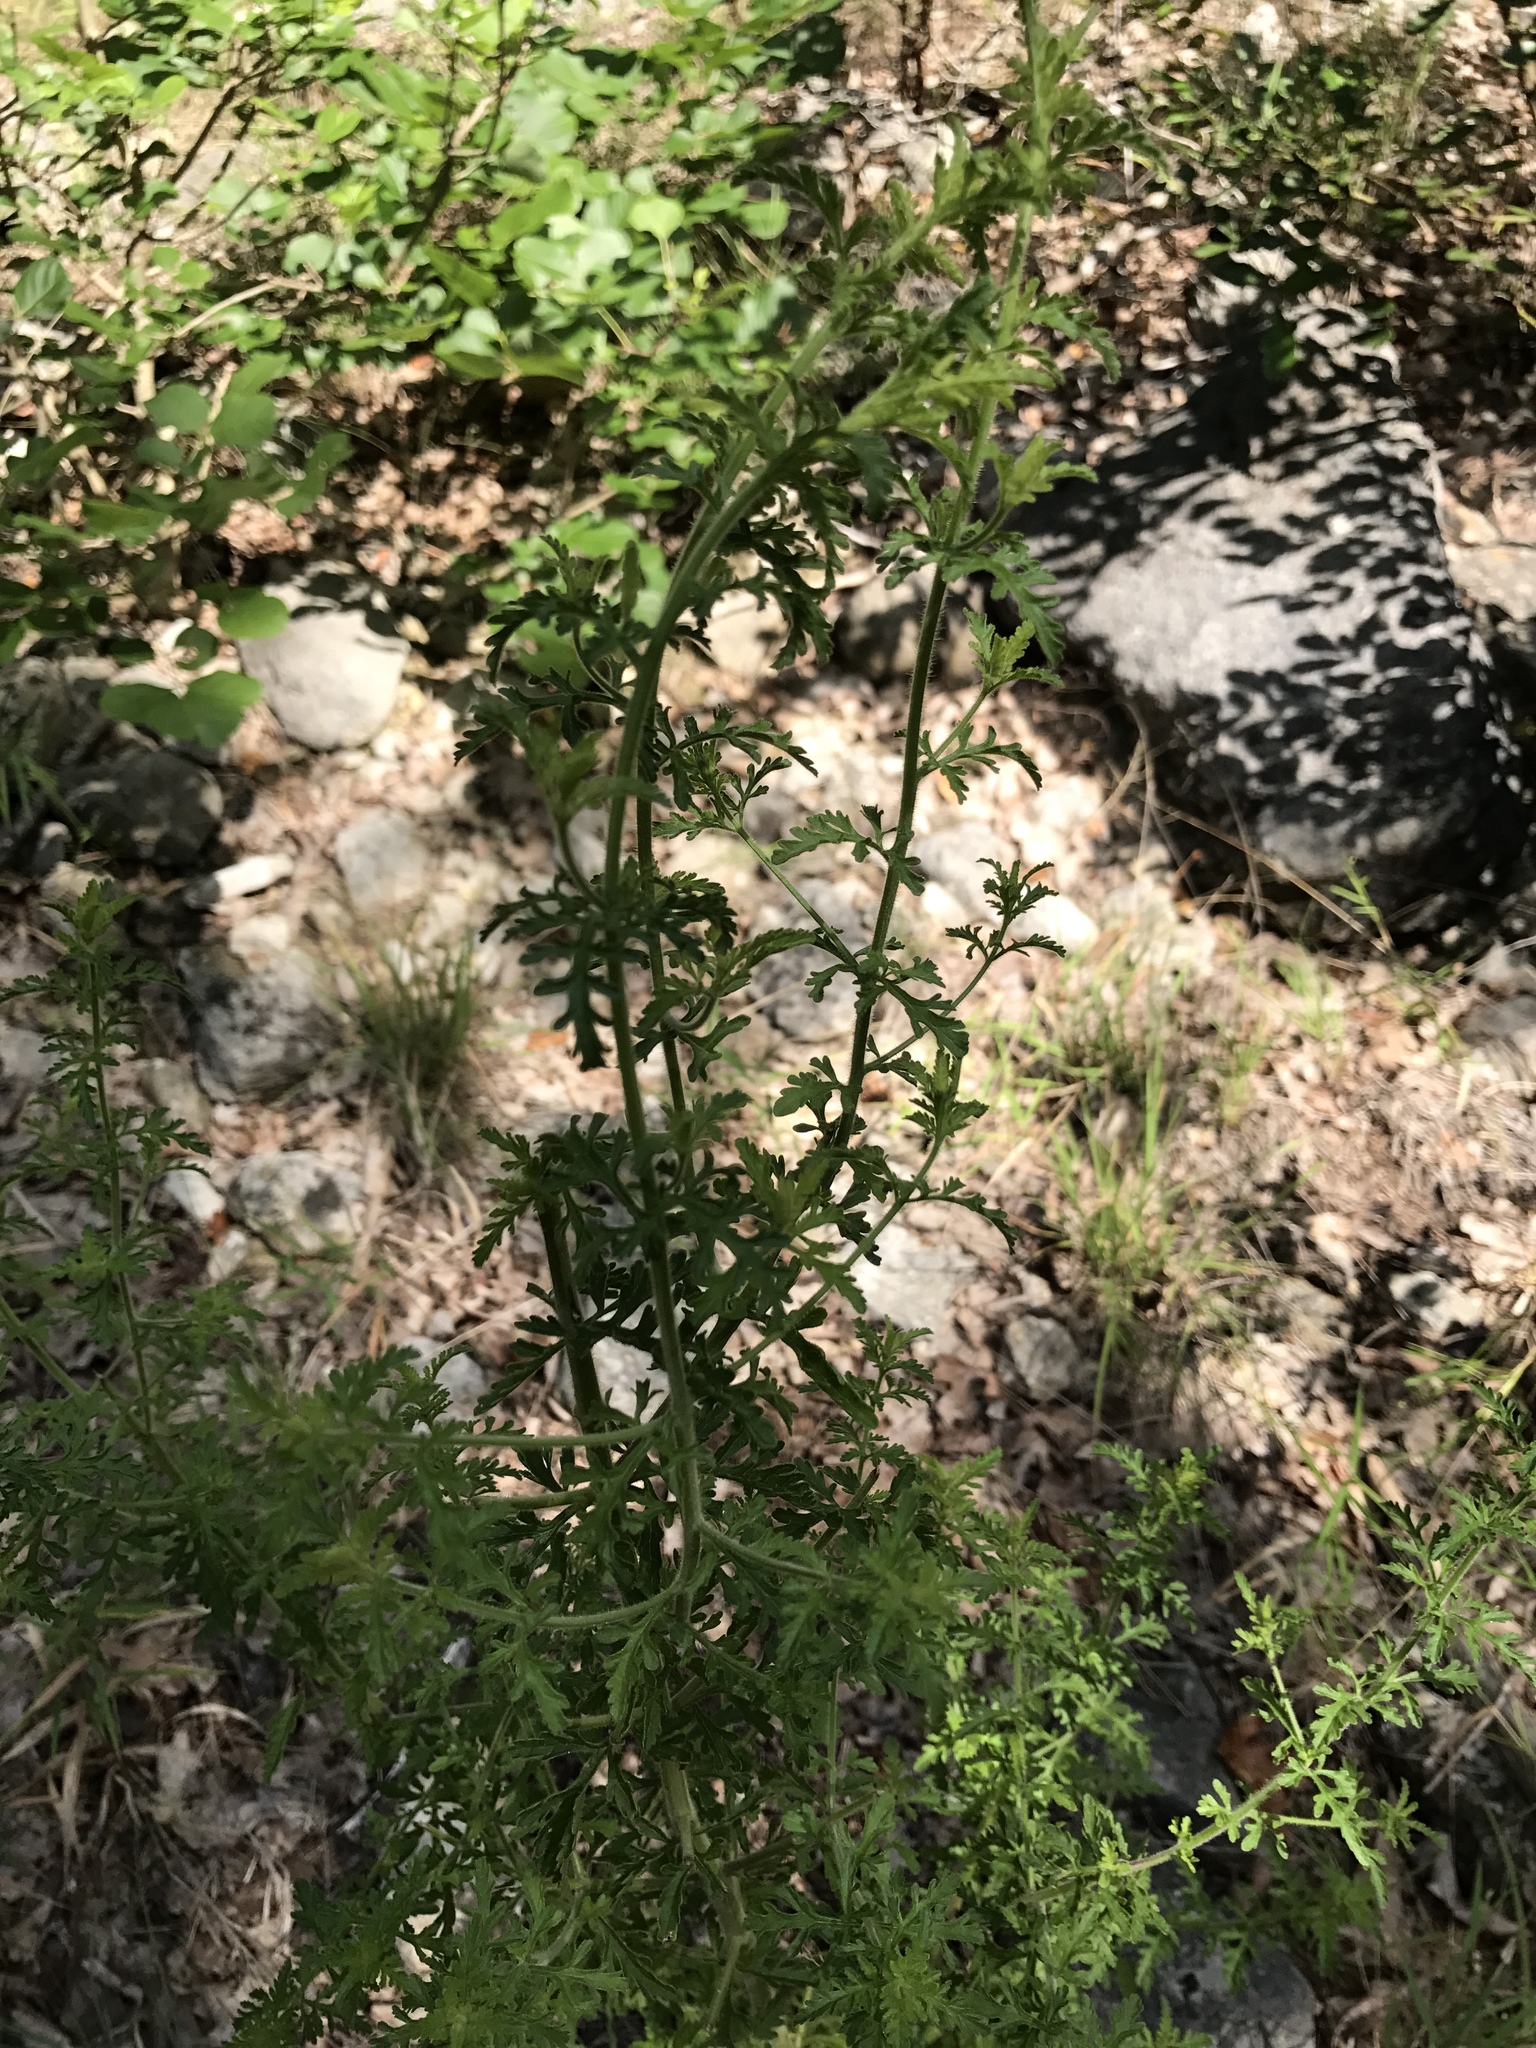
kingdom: Plantae
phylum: Tracheophyta
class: Magnoliopsida
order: Lamiales
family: Orobanchaceae
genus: Seymeria
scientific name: Seymeria bipinnatisecta
